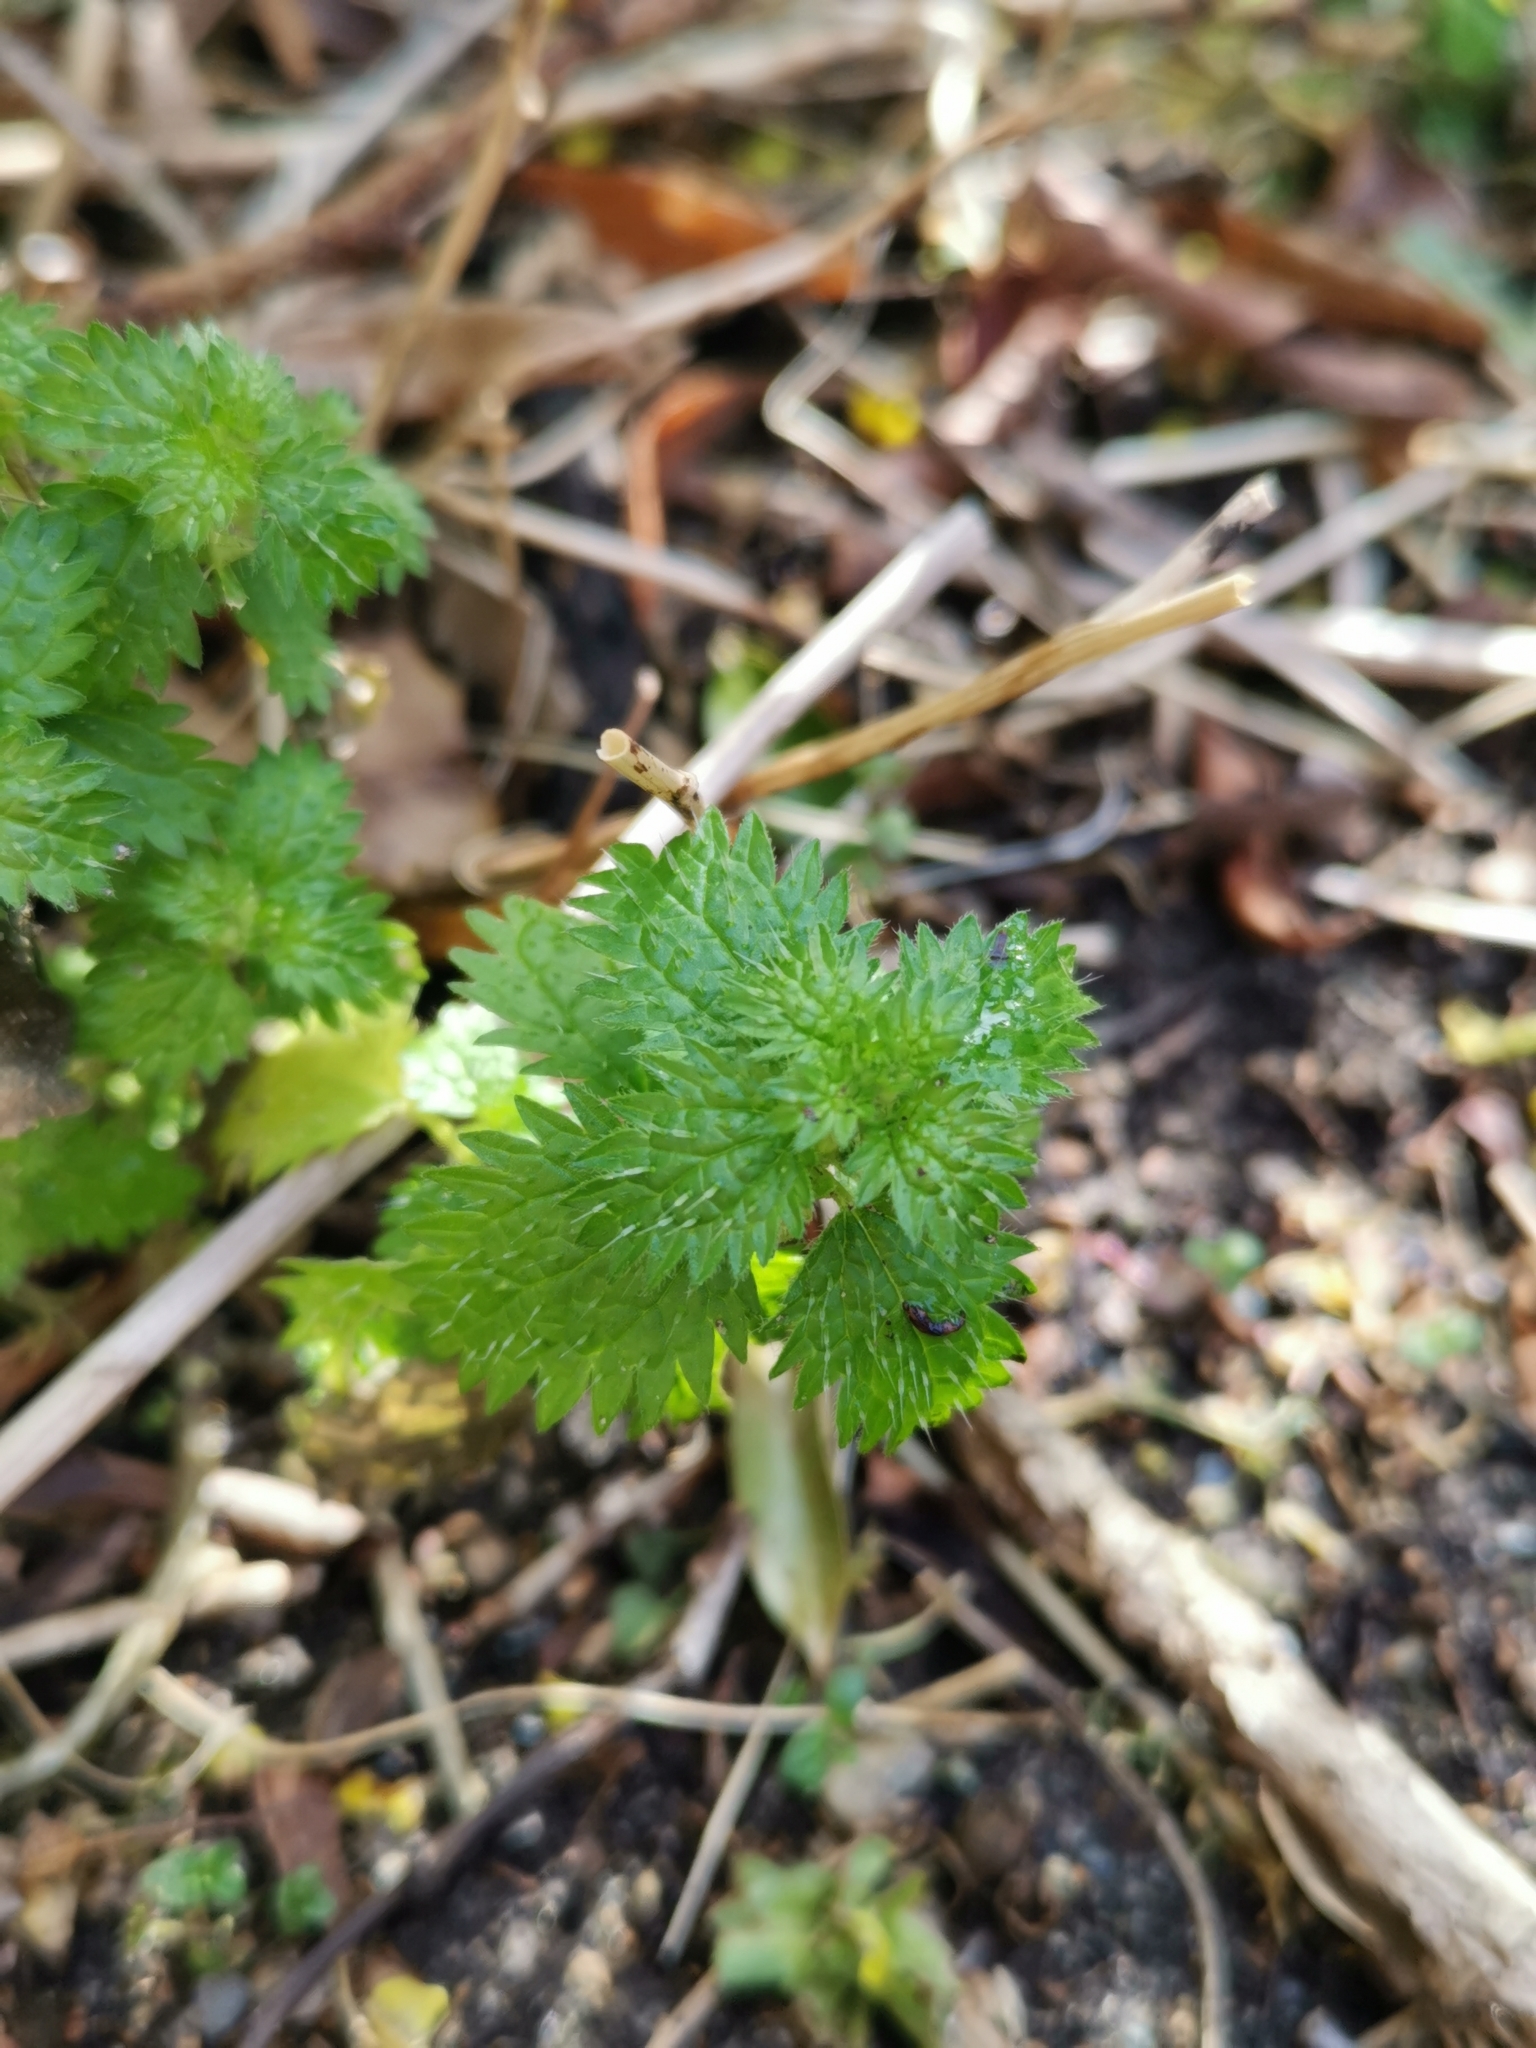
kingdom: Plantae
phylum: Tracheophyta
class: Magnoliopsida
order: Rosales
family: Urticaceae
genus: Urtica
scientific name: Urtica urens
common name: Dwarf nettle
